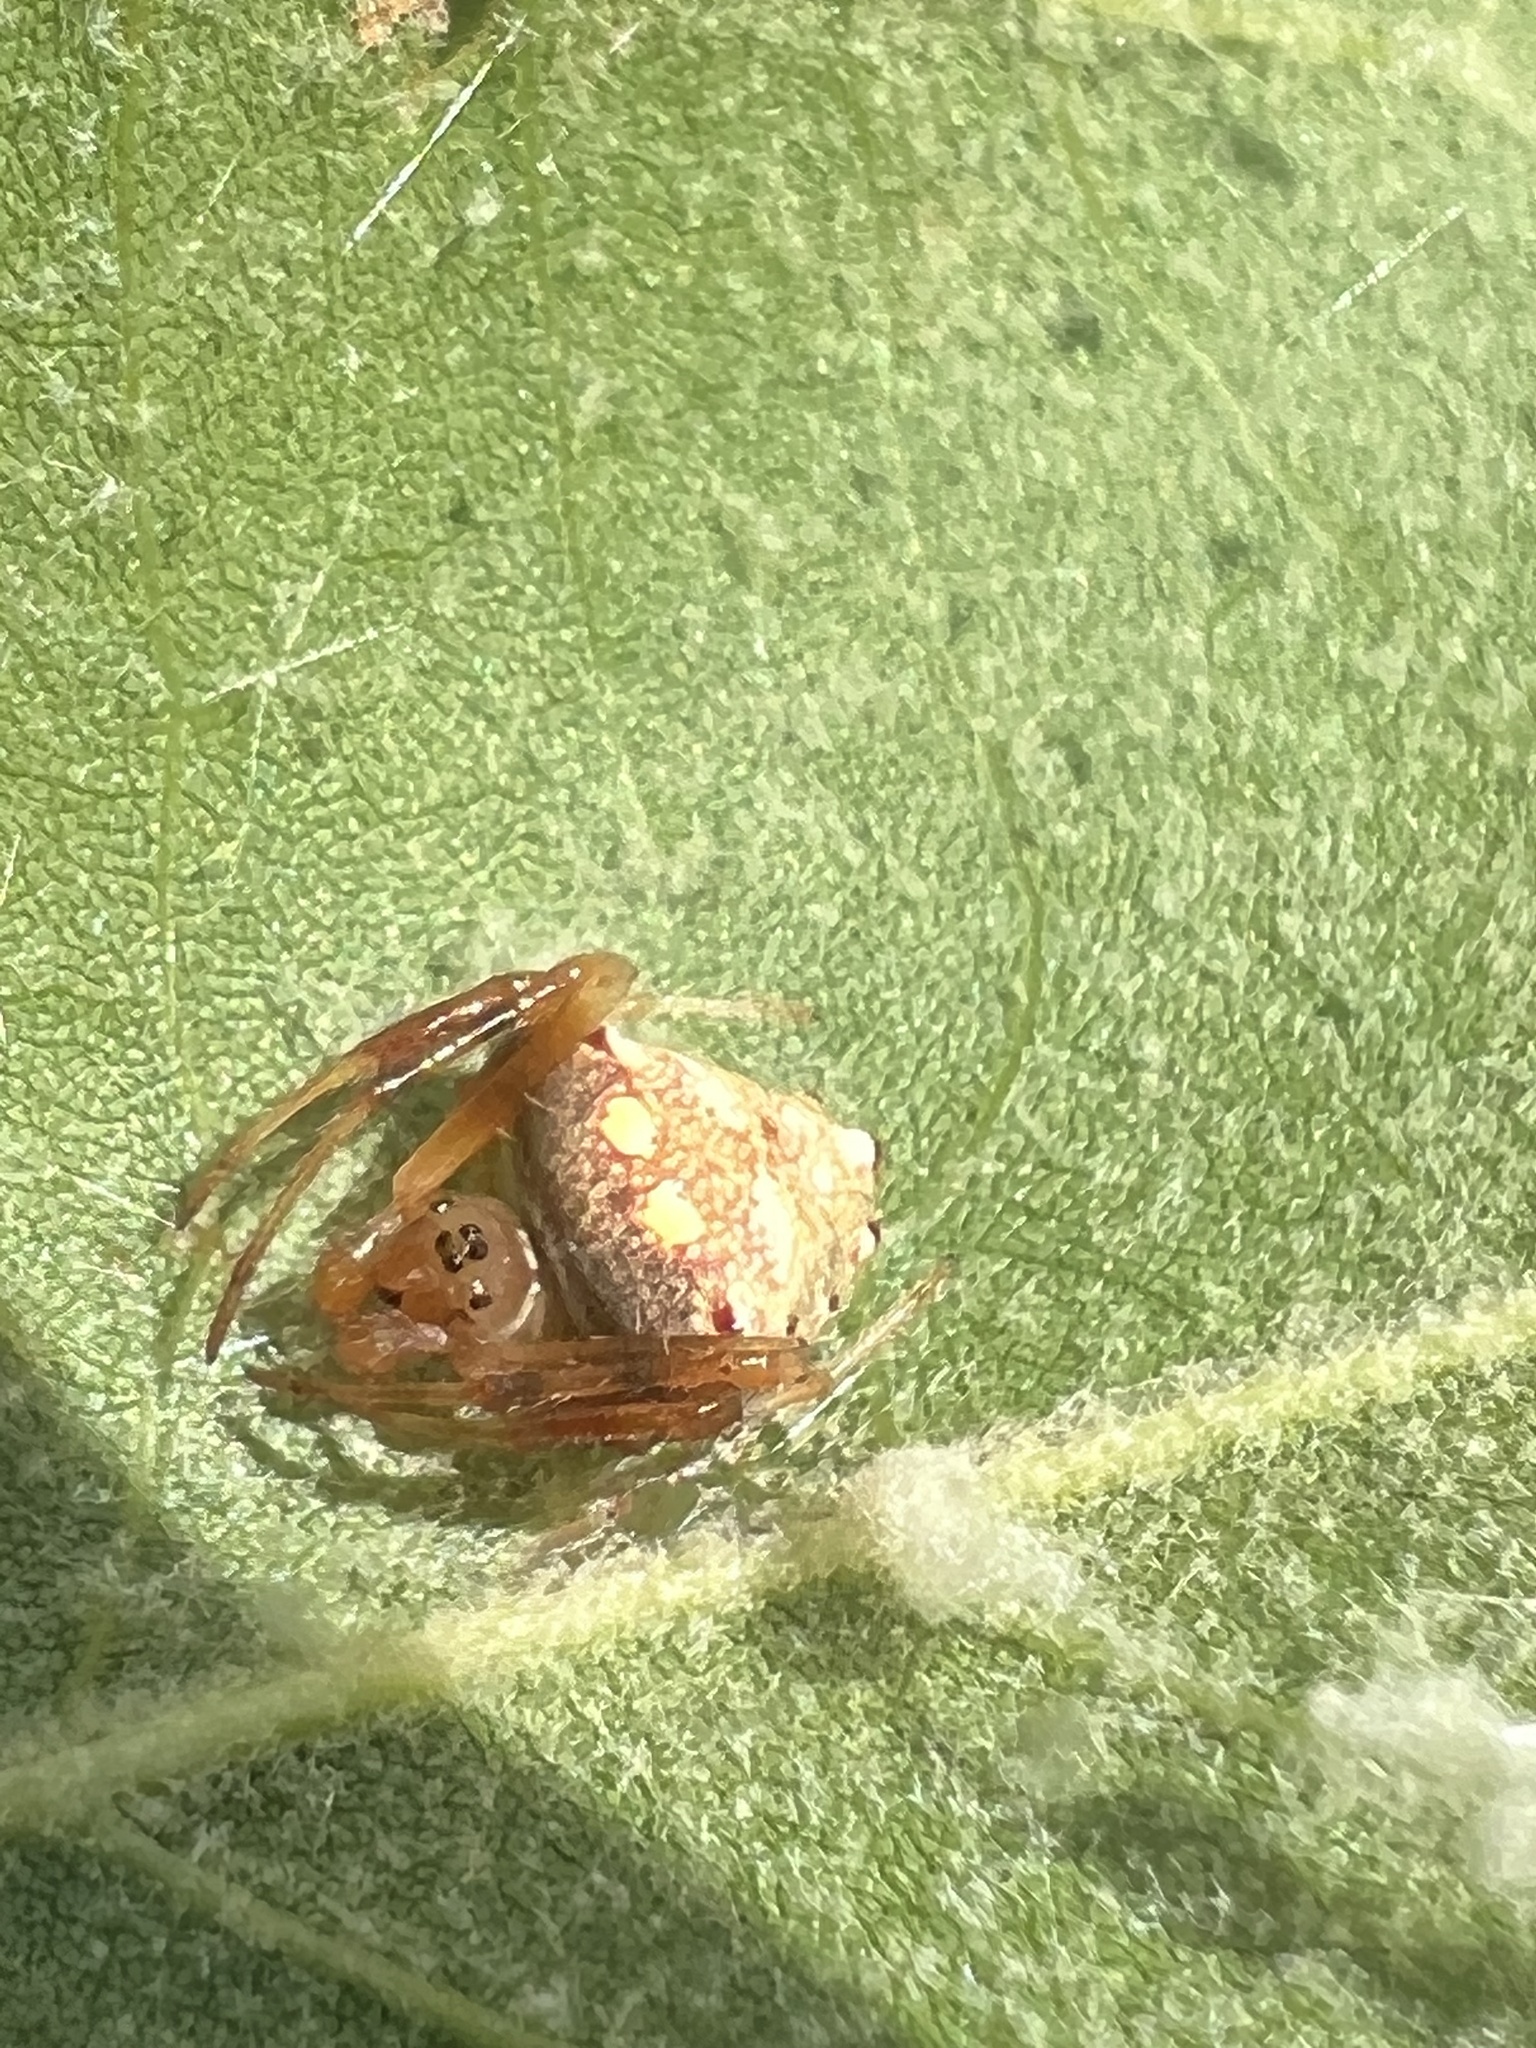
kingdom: Animalia
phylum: Arthropoda
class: Arachnida
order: Araneae
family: Araneidae
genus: Verrucosa
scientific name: Verrucosa arenata
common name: Orb weavers
